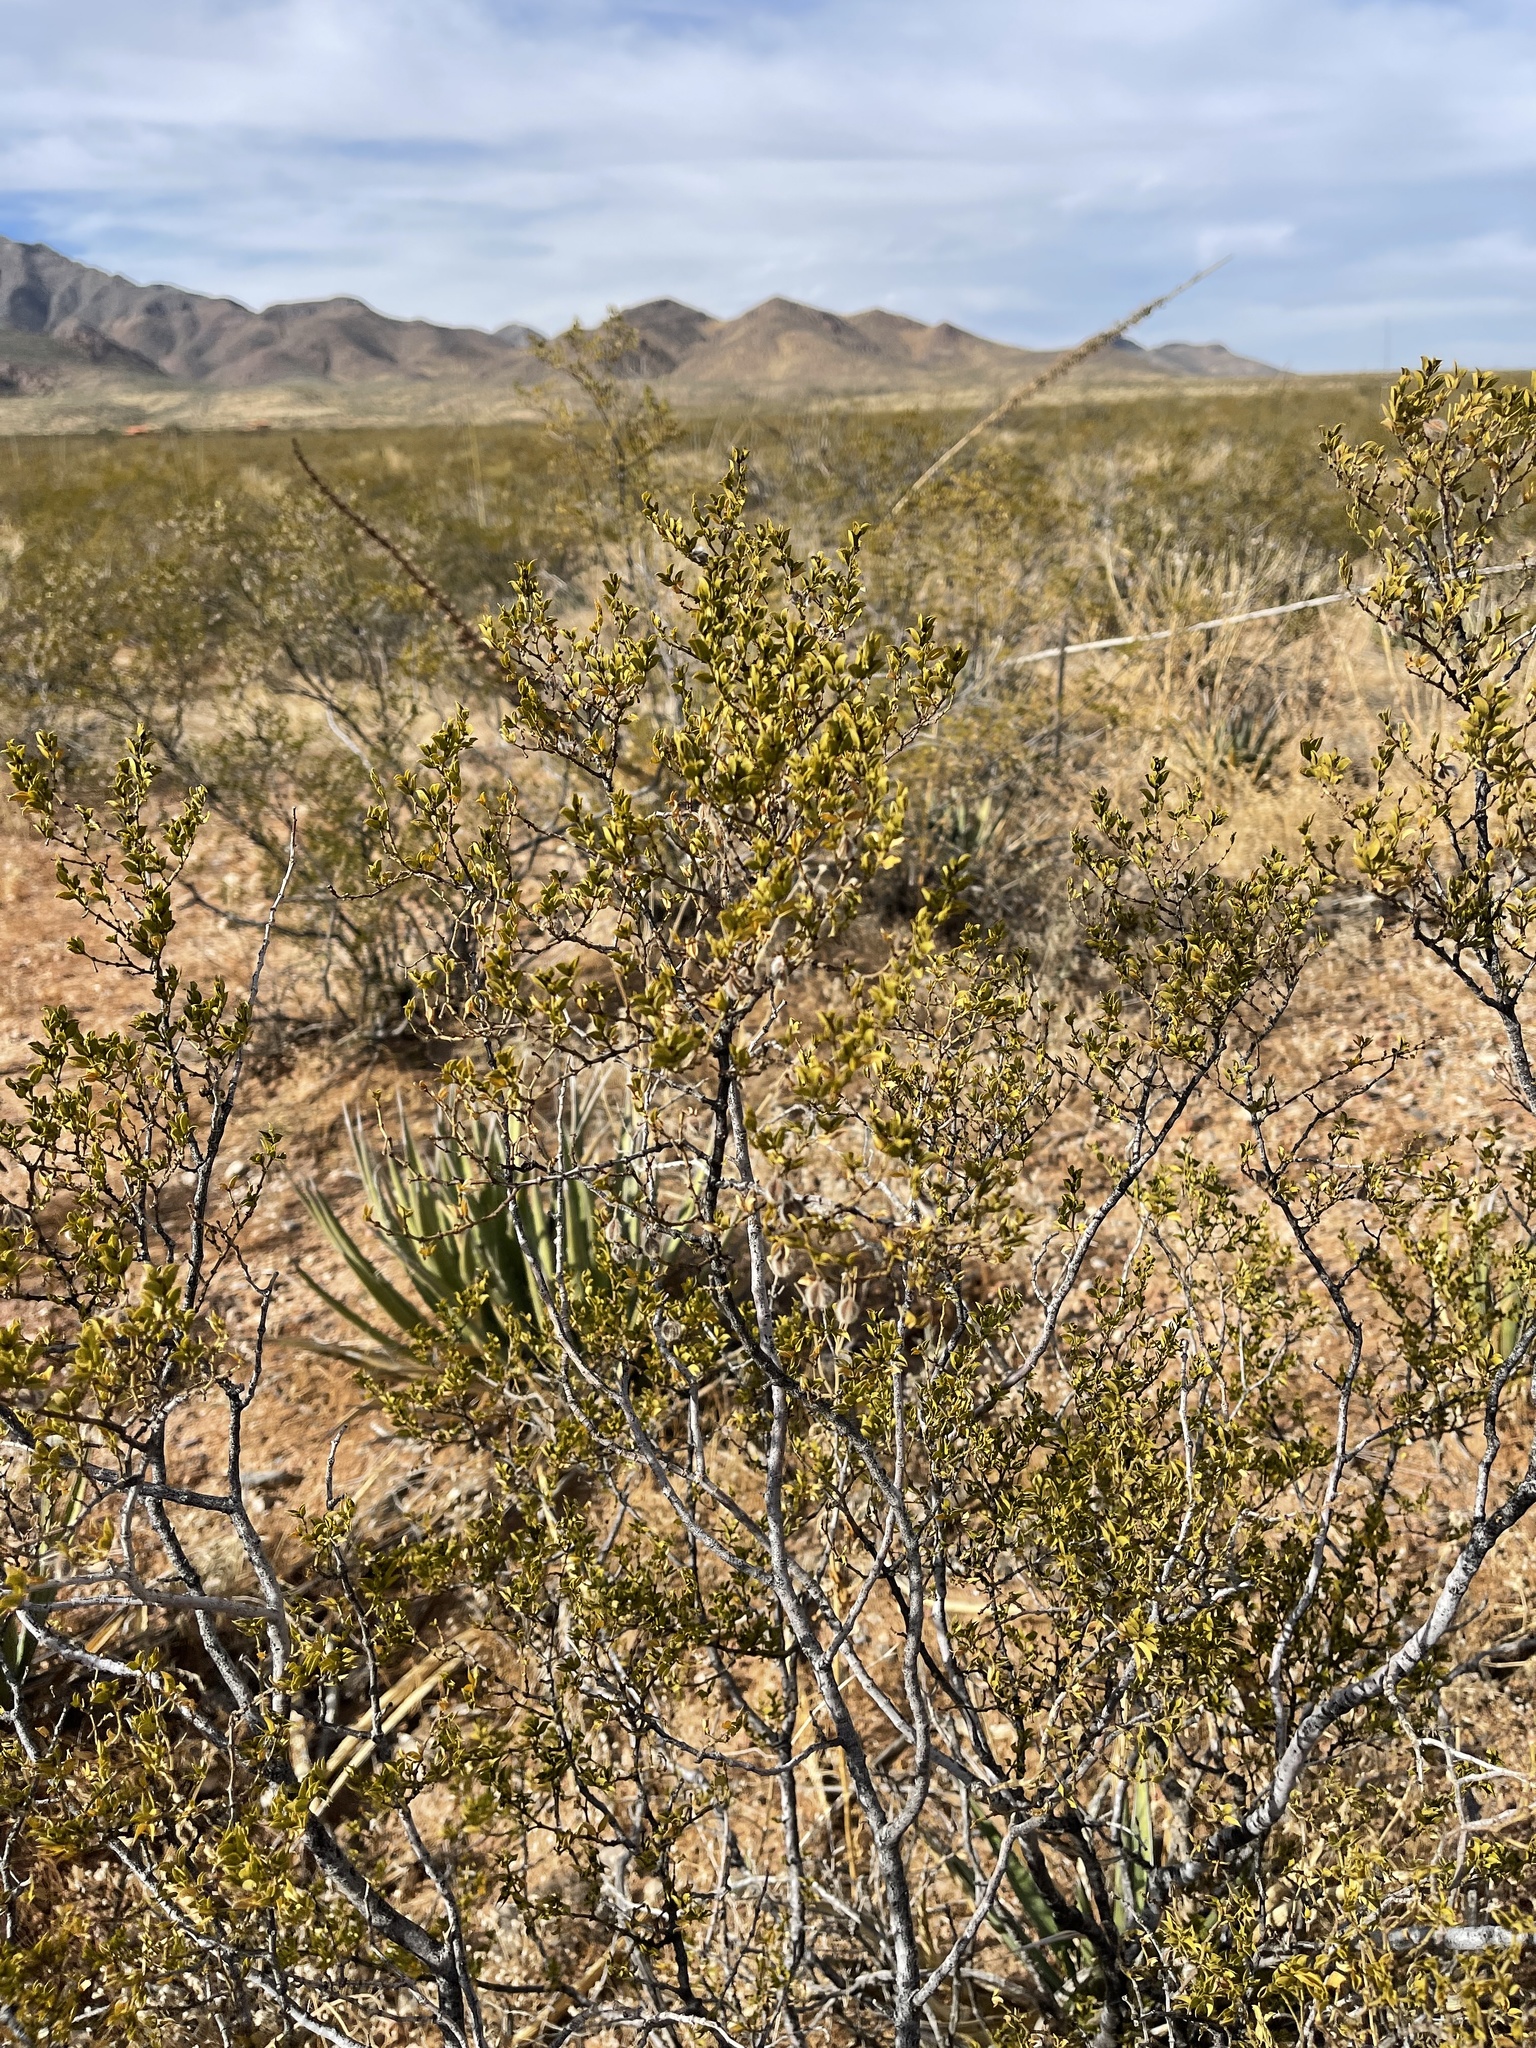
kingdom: Plantae
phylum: Tracheophyta
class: Magnoliopsida
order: Zygophyllales
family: Zygophyllaceae
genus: Larrea
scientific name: Larrea tridentata
